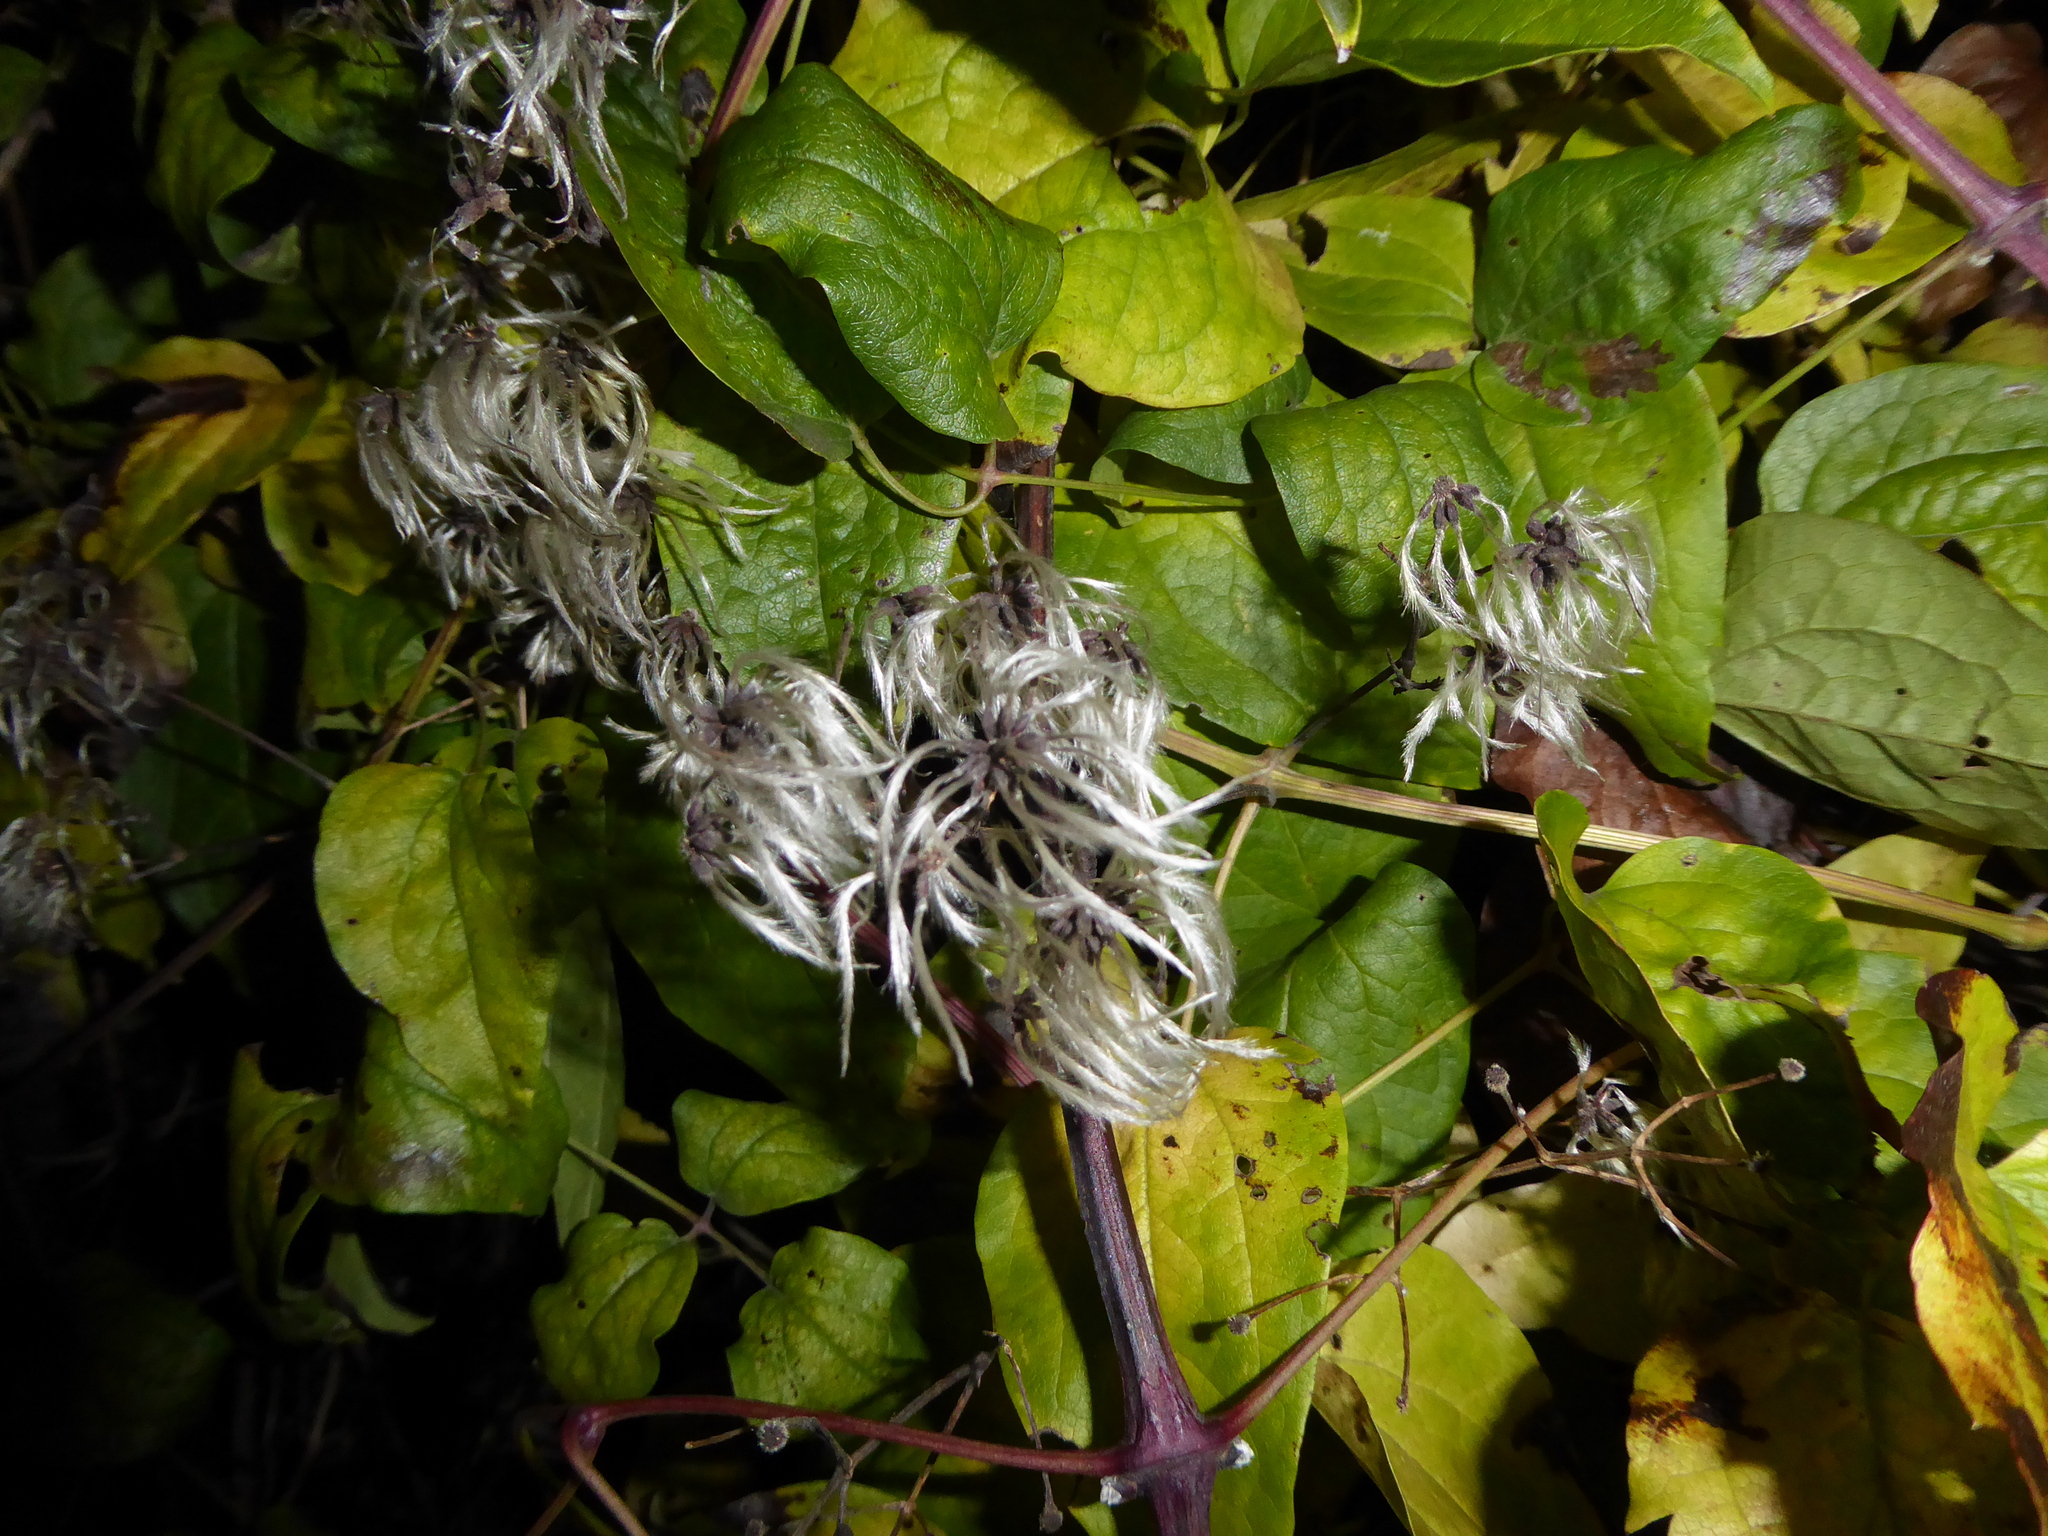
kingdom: Plantae
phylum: Tracheophyta
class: Magnoliopsida
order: Ranunculales
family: Ranunculaceae
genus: Clematis
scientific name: Clematis vitalba
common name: Evergreen clematis
